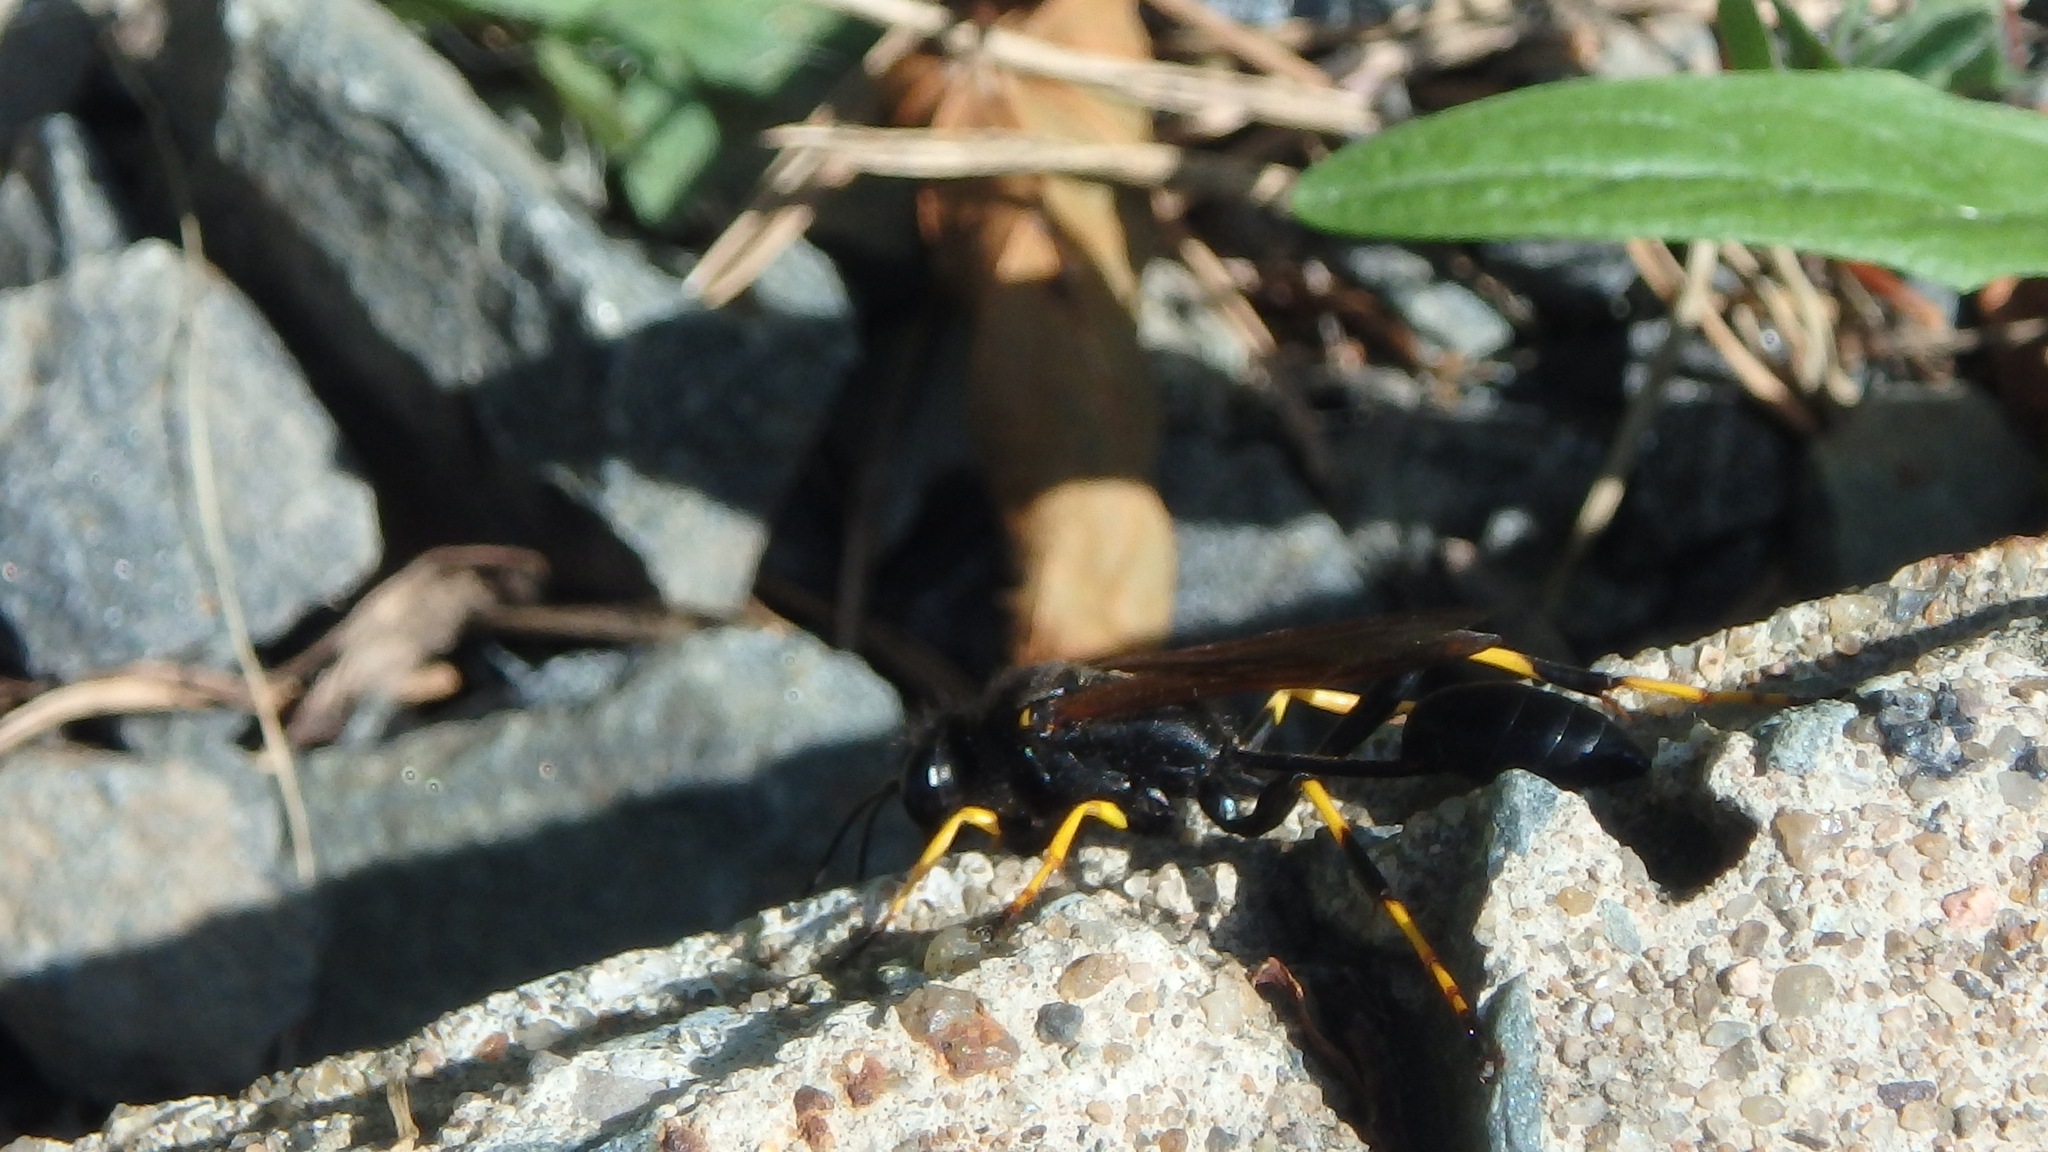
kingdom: Animalia
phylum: Arthropoda
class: Insecta
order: Hymenoptera
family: Sphecidae
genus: Sceliphron
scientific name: Sceliphron caementarium
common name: Mud dauber
